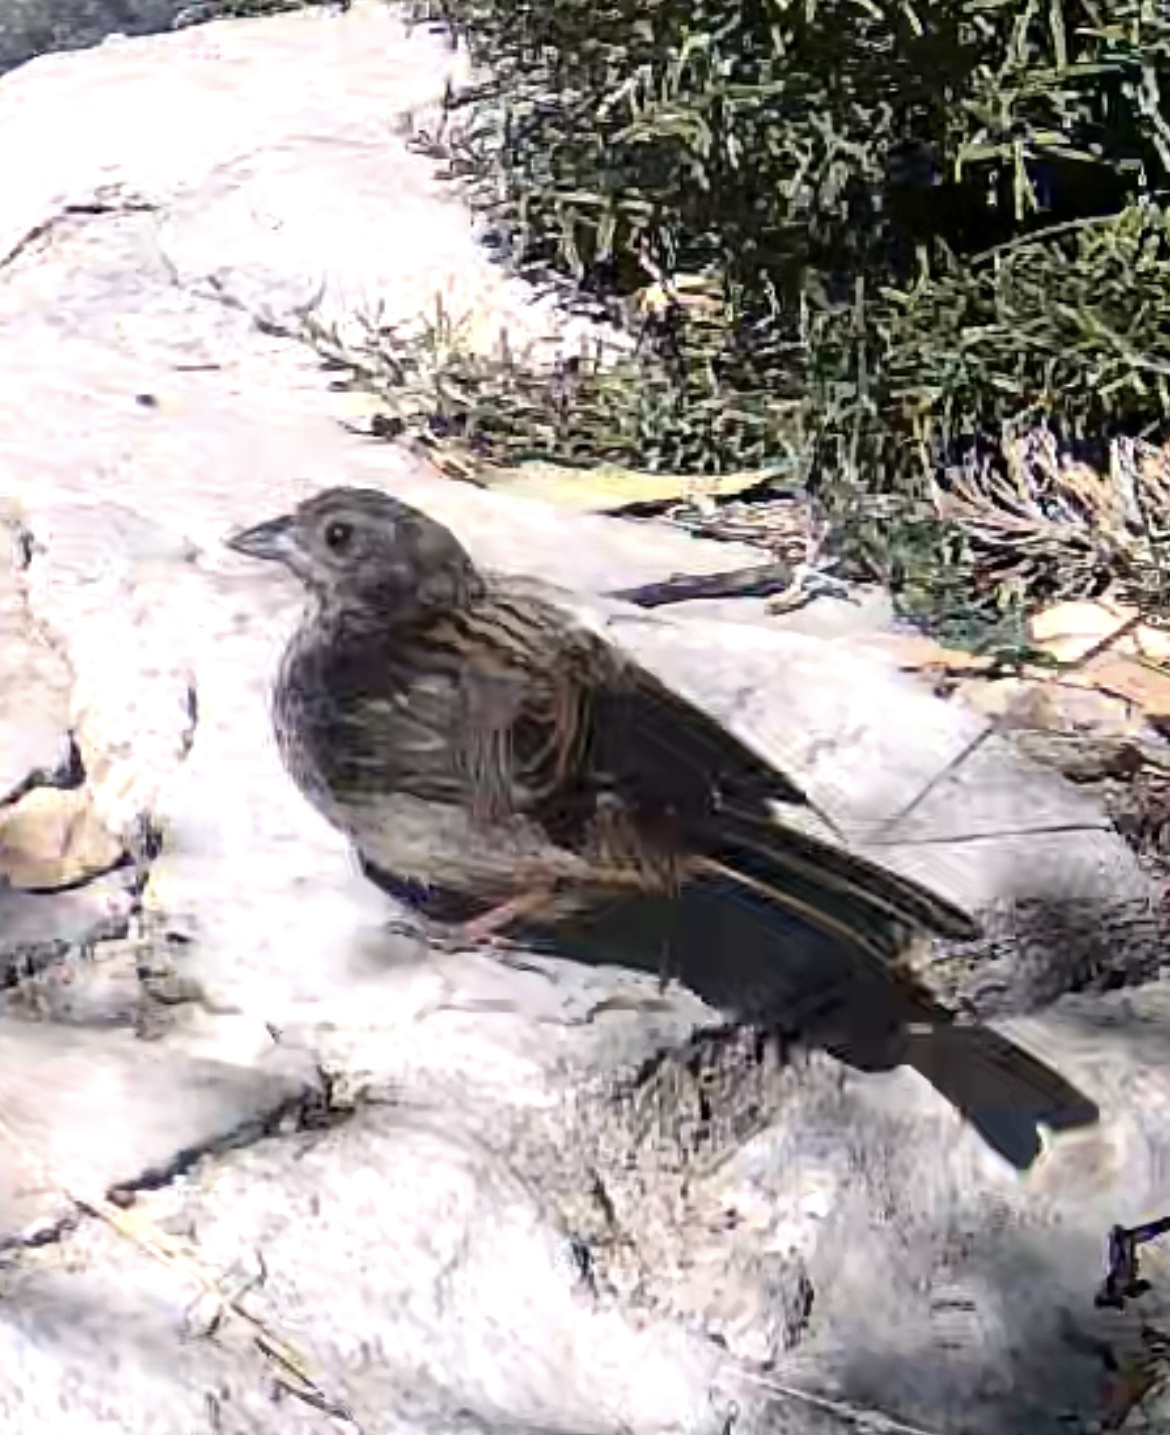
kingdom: Animalia
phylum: Chordata
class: Aves
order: Passeriformes
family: Emberizidae
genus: Emberiza
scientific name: Emberiza cia
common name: Rock bunting
